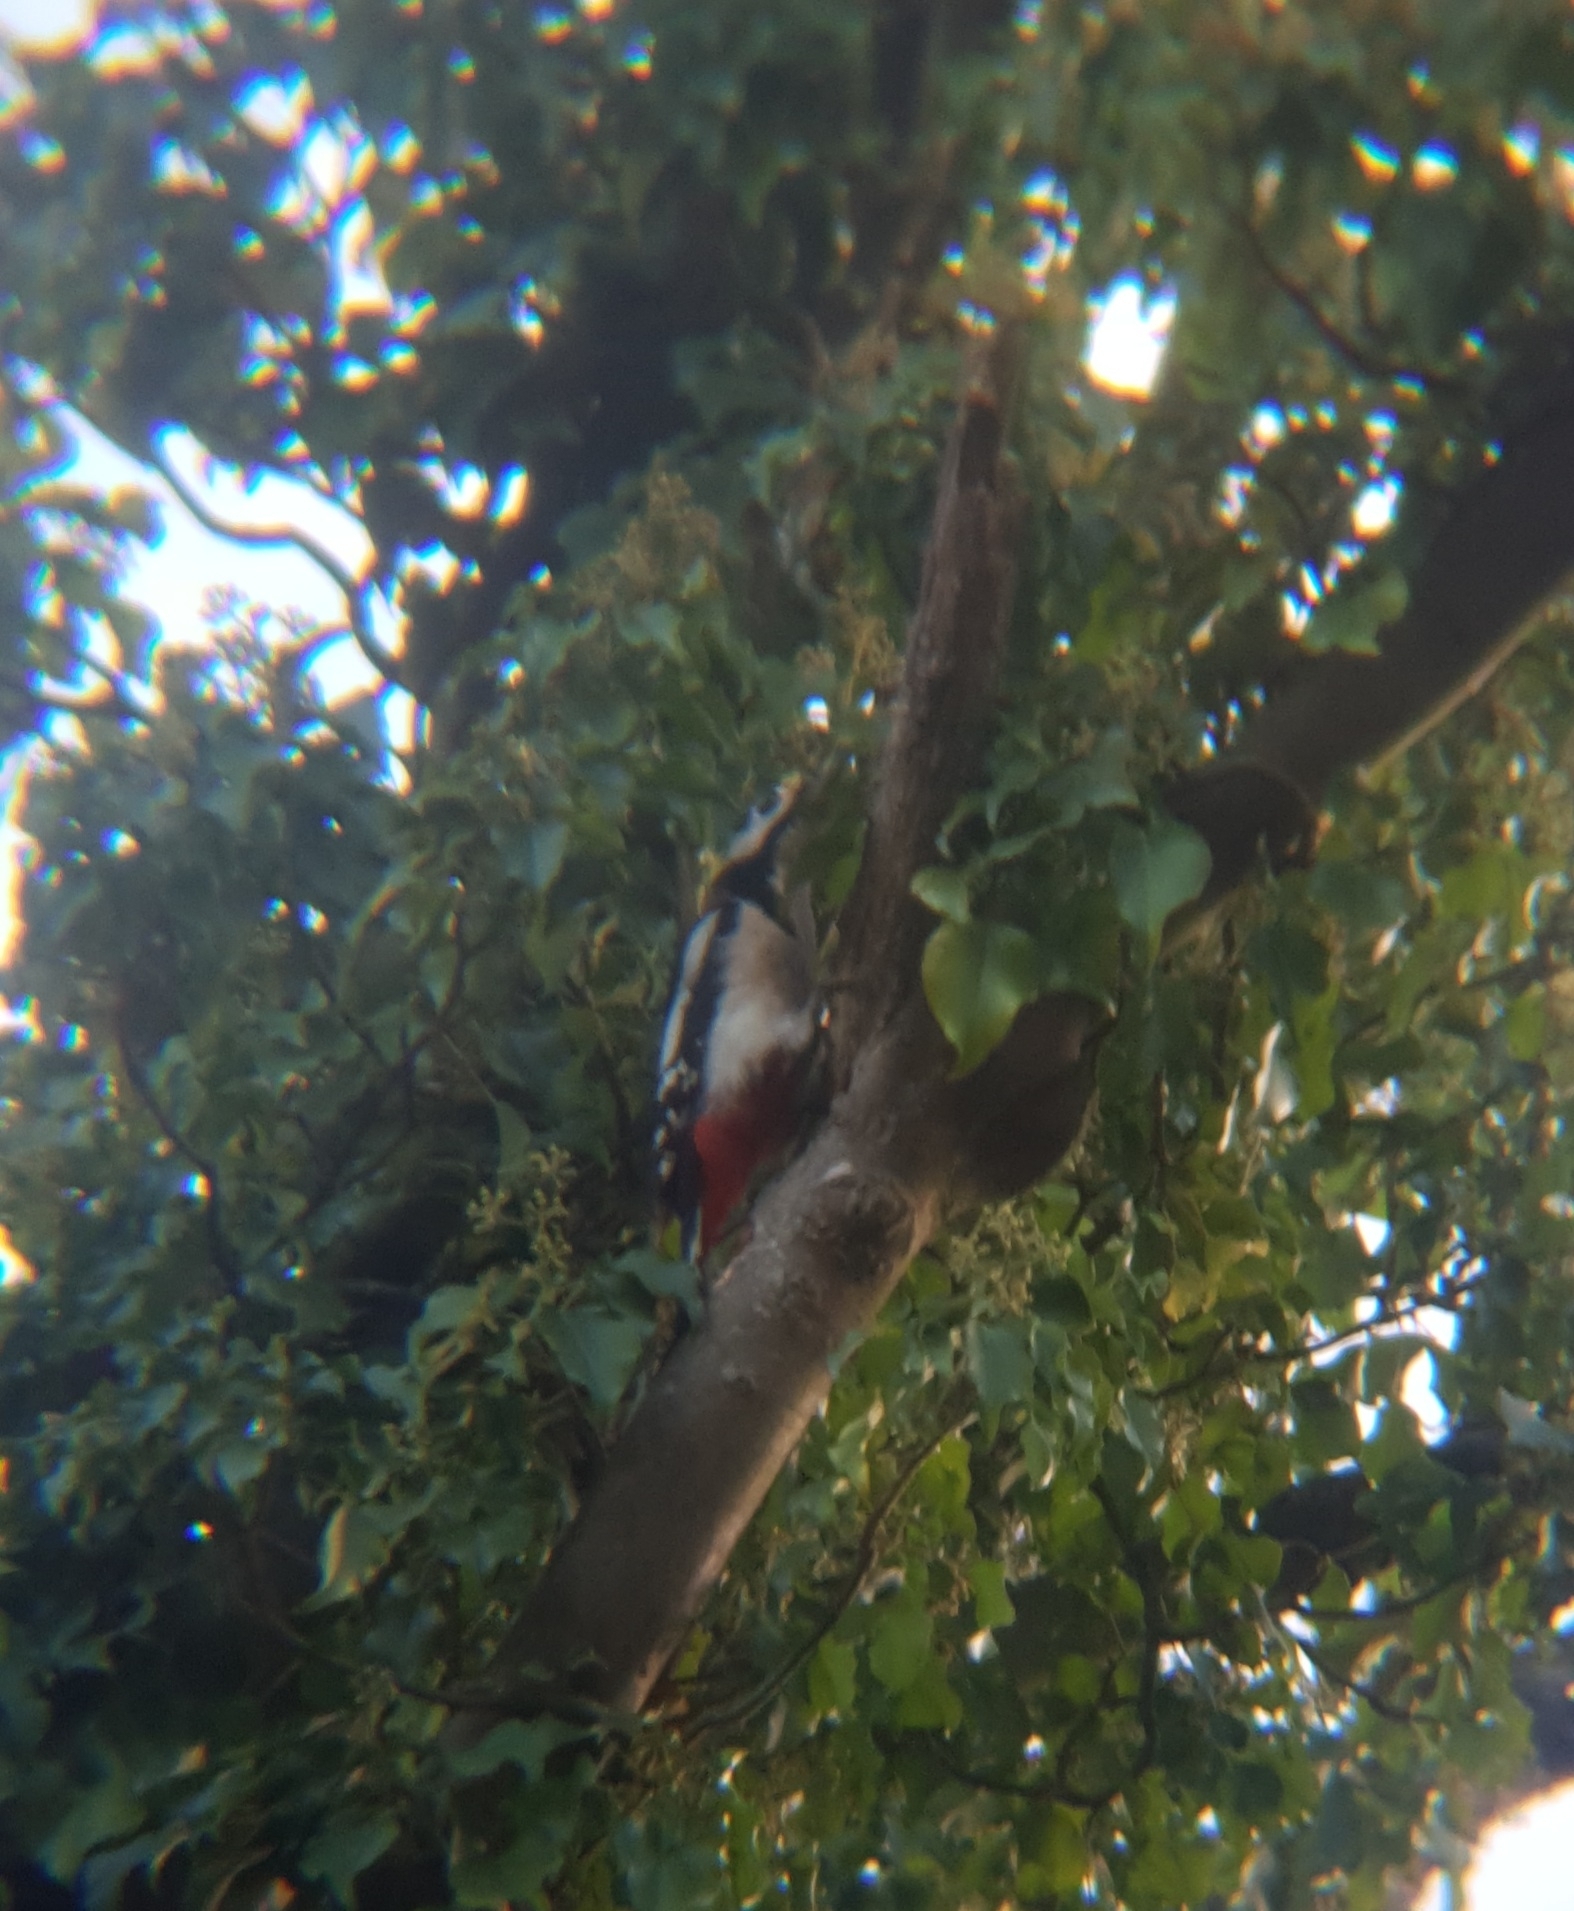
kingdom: Animalia
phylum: Chordata
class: Aves
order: Piciformes
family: Picidae
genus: Dendrocopos
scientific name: Dendrocopos major
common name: Great spotted woodpecker
